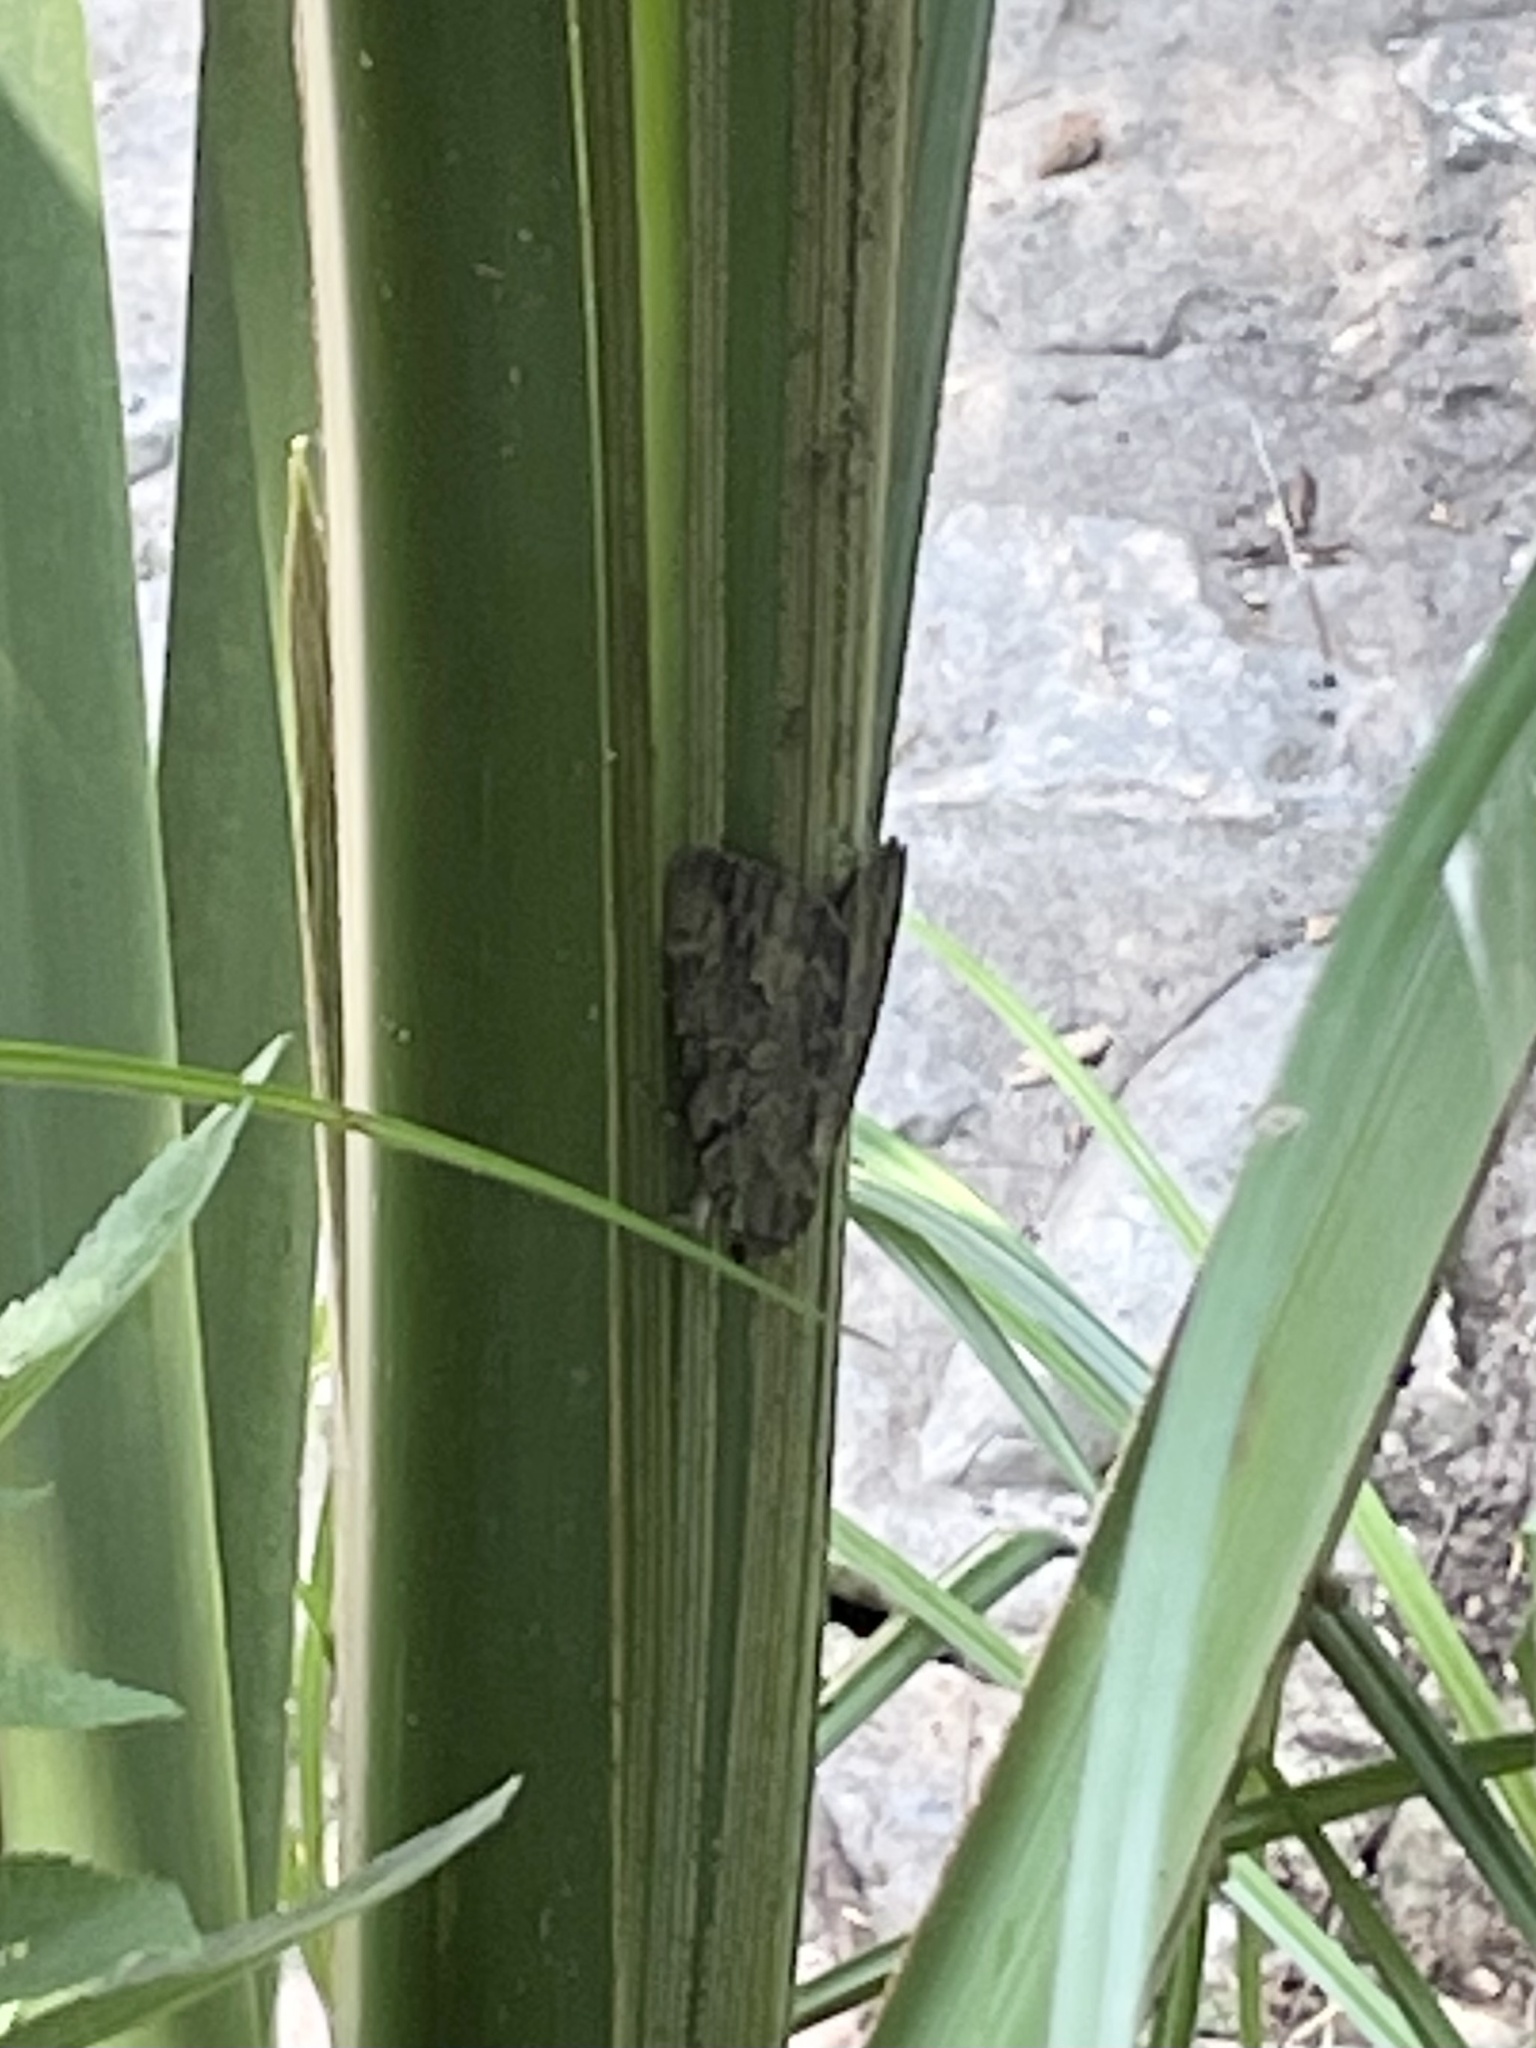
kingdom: Animalia
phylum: Arthropoda
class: Insecta
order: Lepidoptera
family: Erebidae
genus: Catocala
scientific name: Catocala agrippina
